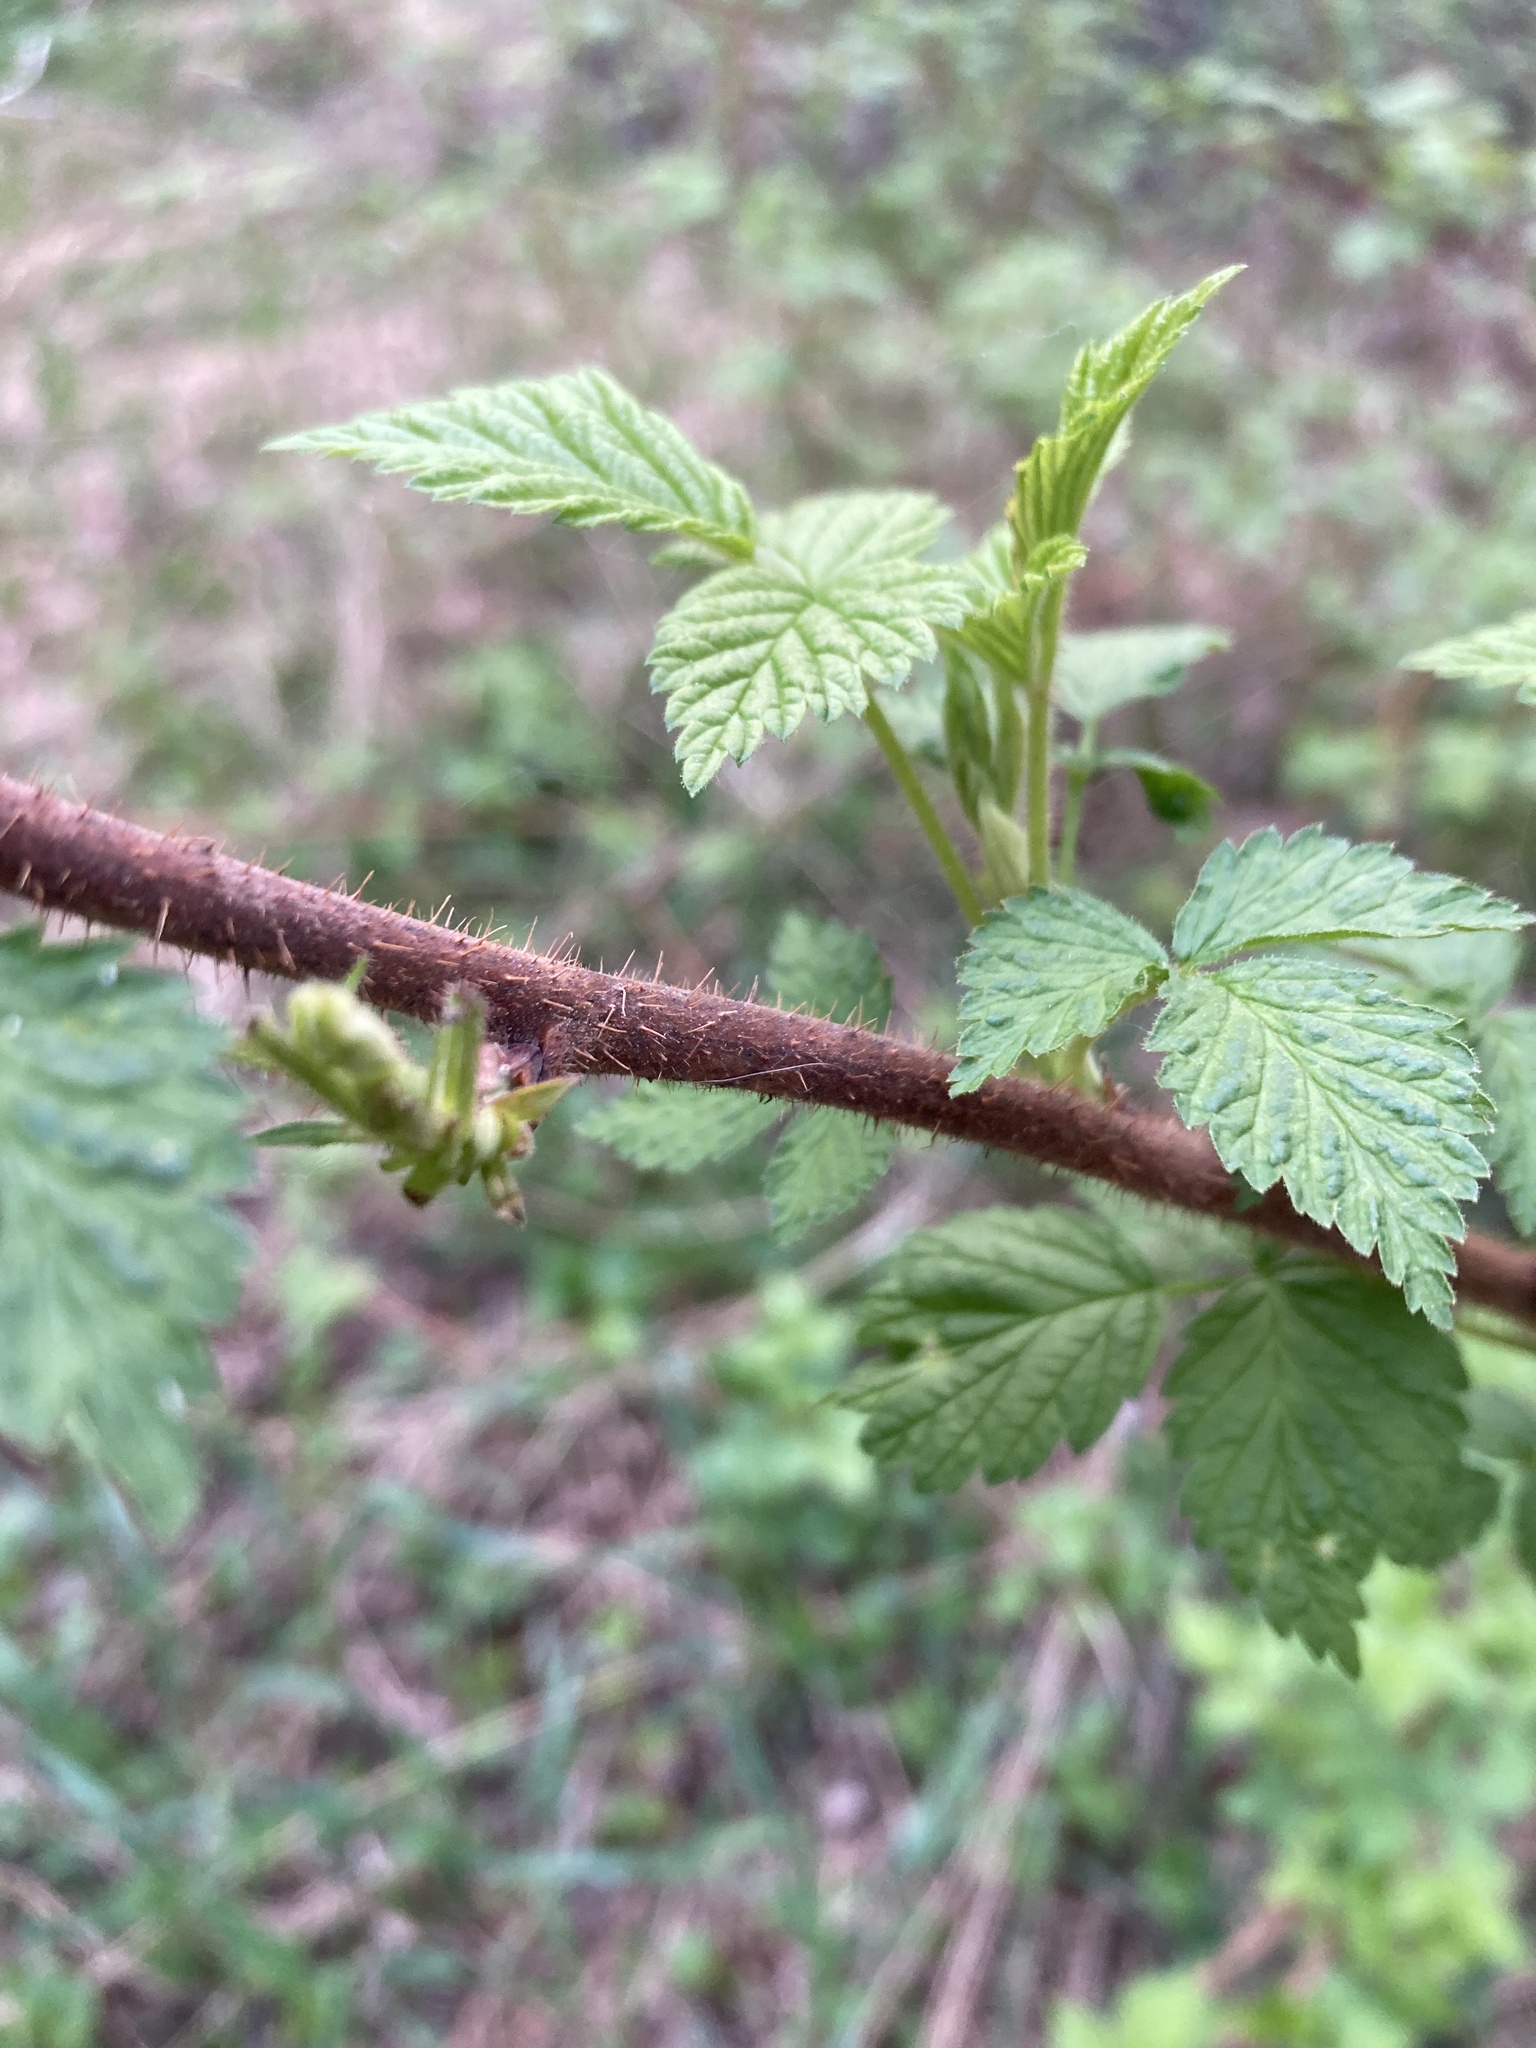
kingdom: Plantae
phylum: Tracheophyta
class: Magnoliopsida
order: Rosales
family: Rosaceae
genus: Rubus
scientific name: Rubus idaeus
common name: Raspberry
